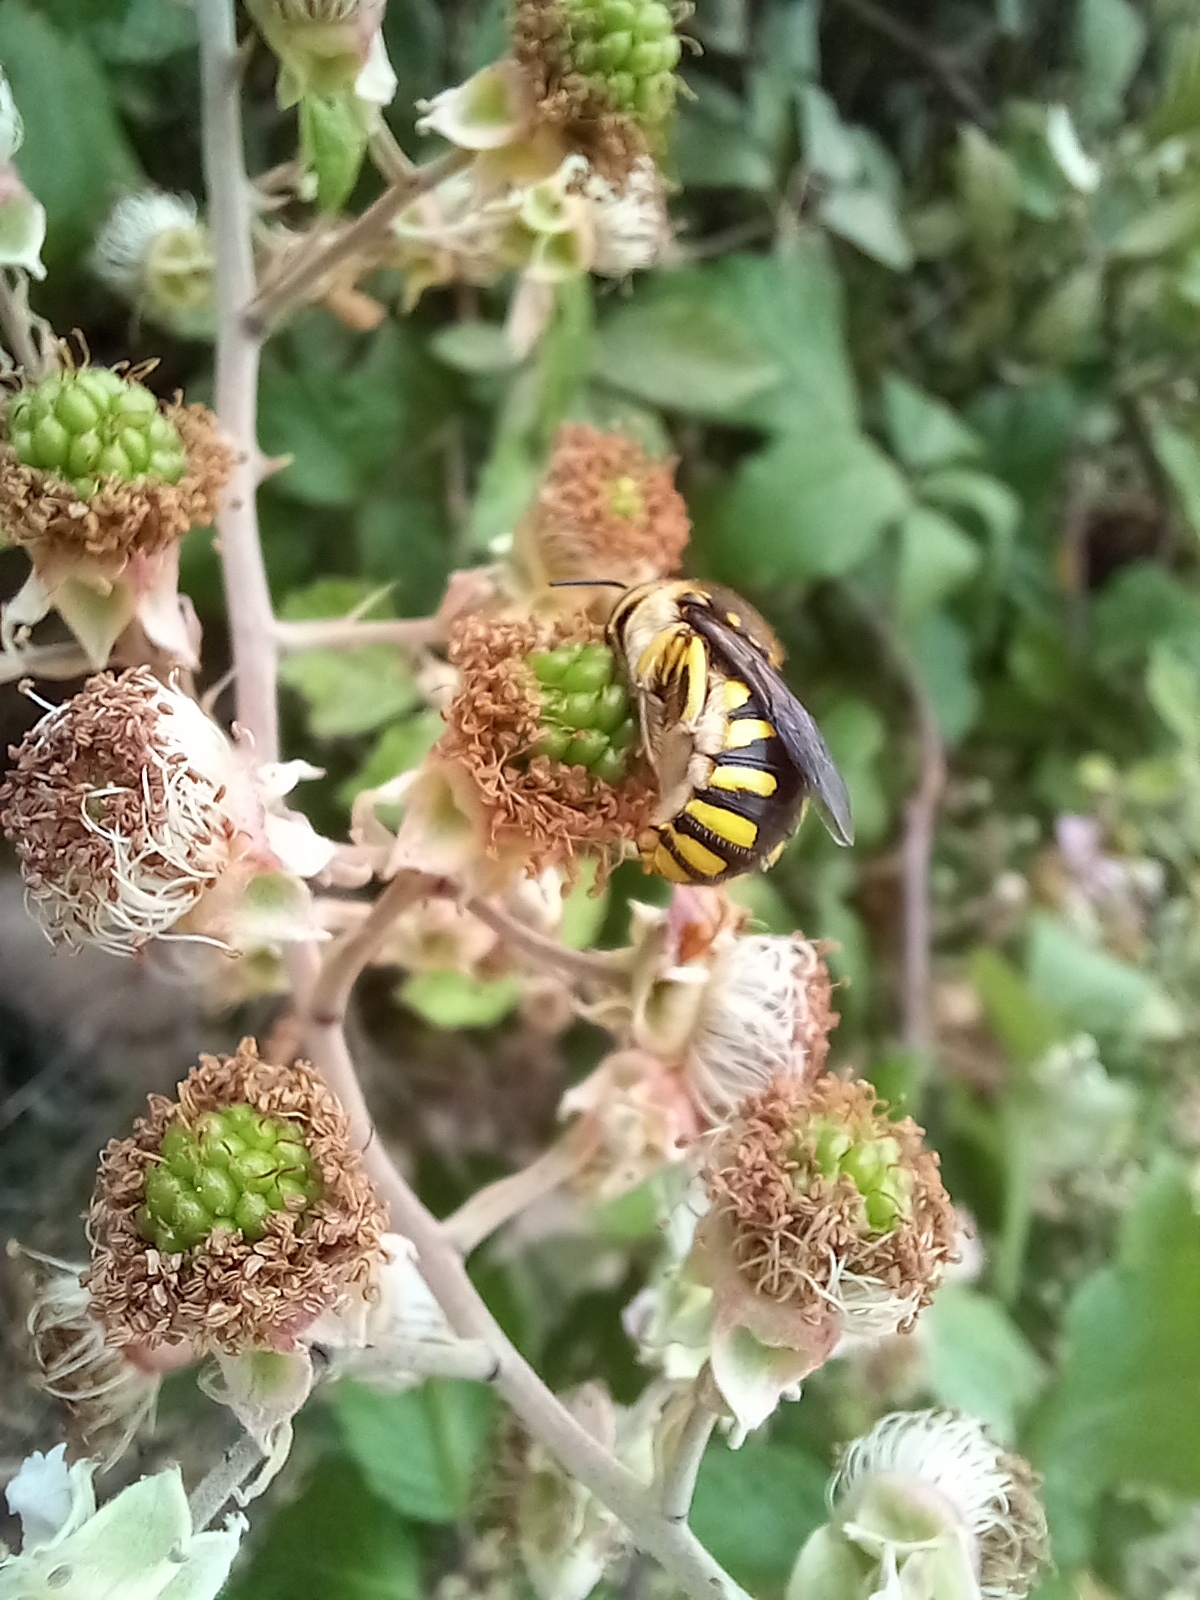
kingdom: Animalia
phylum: Arthropoda
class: Insecta
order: Hymenoptera
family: Megachilidae
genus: Anthidium
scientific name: Anthidium florentinum
